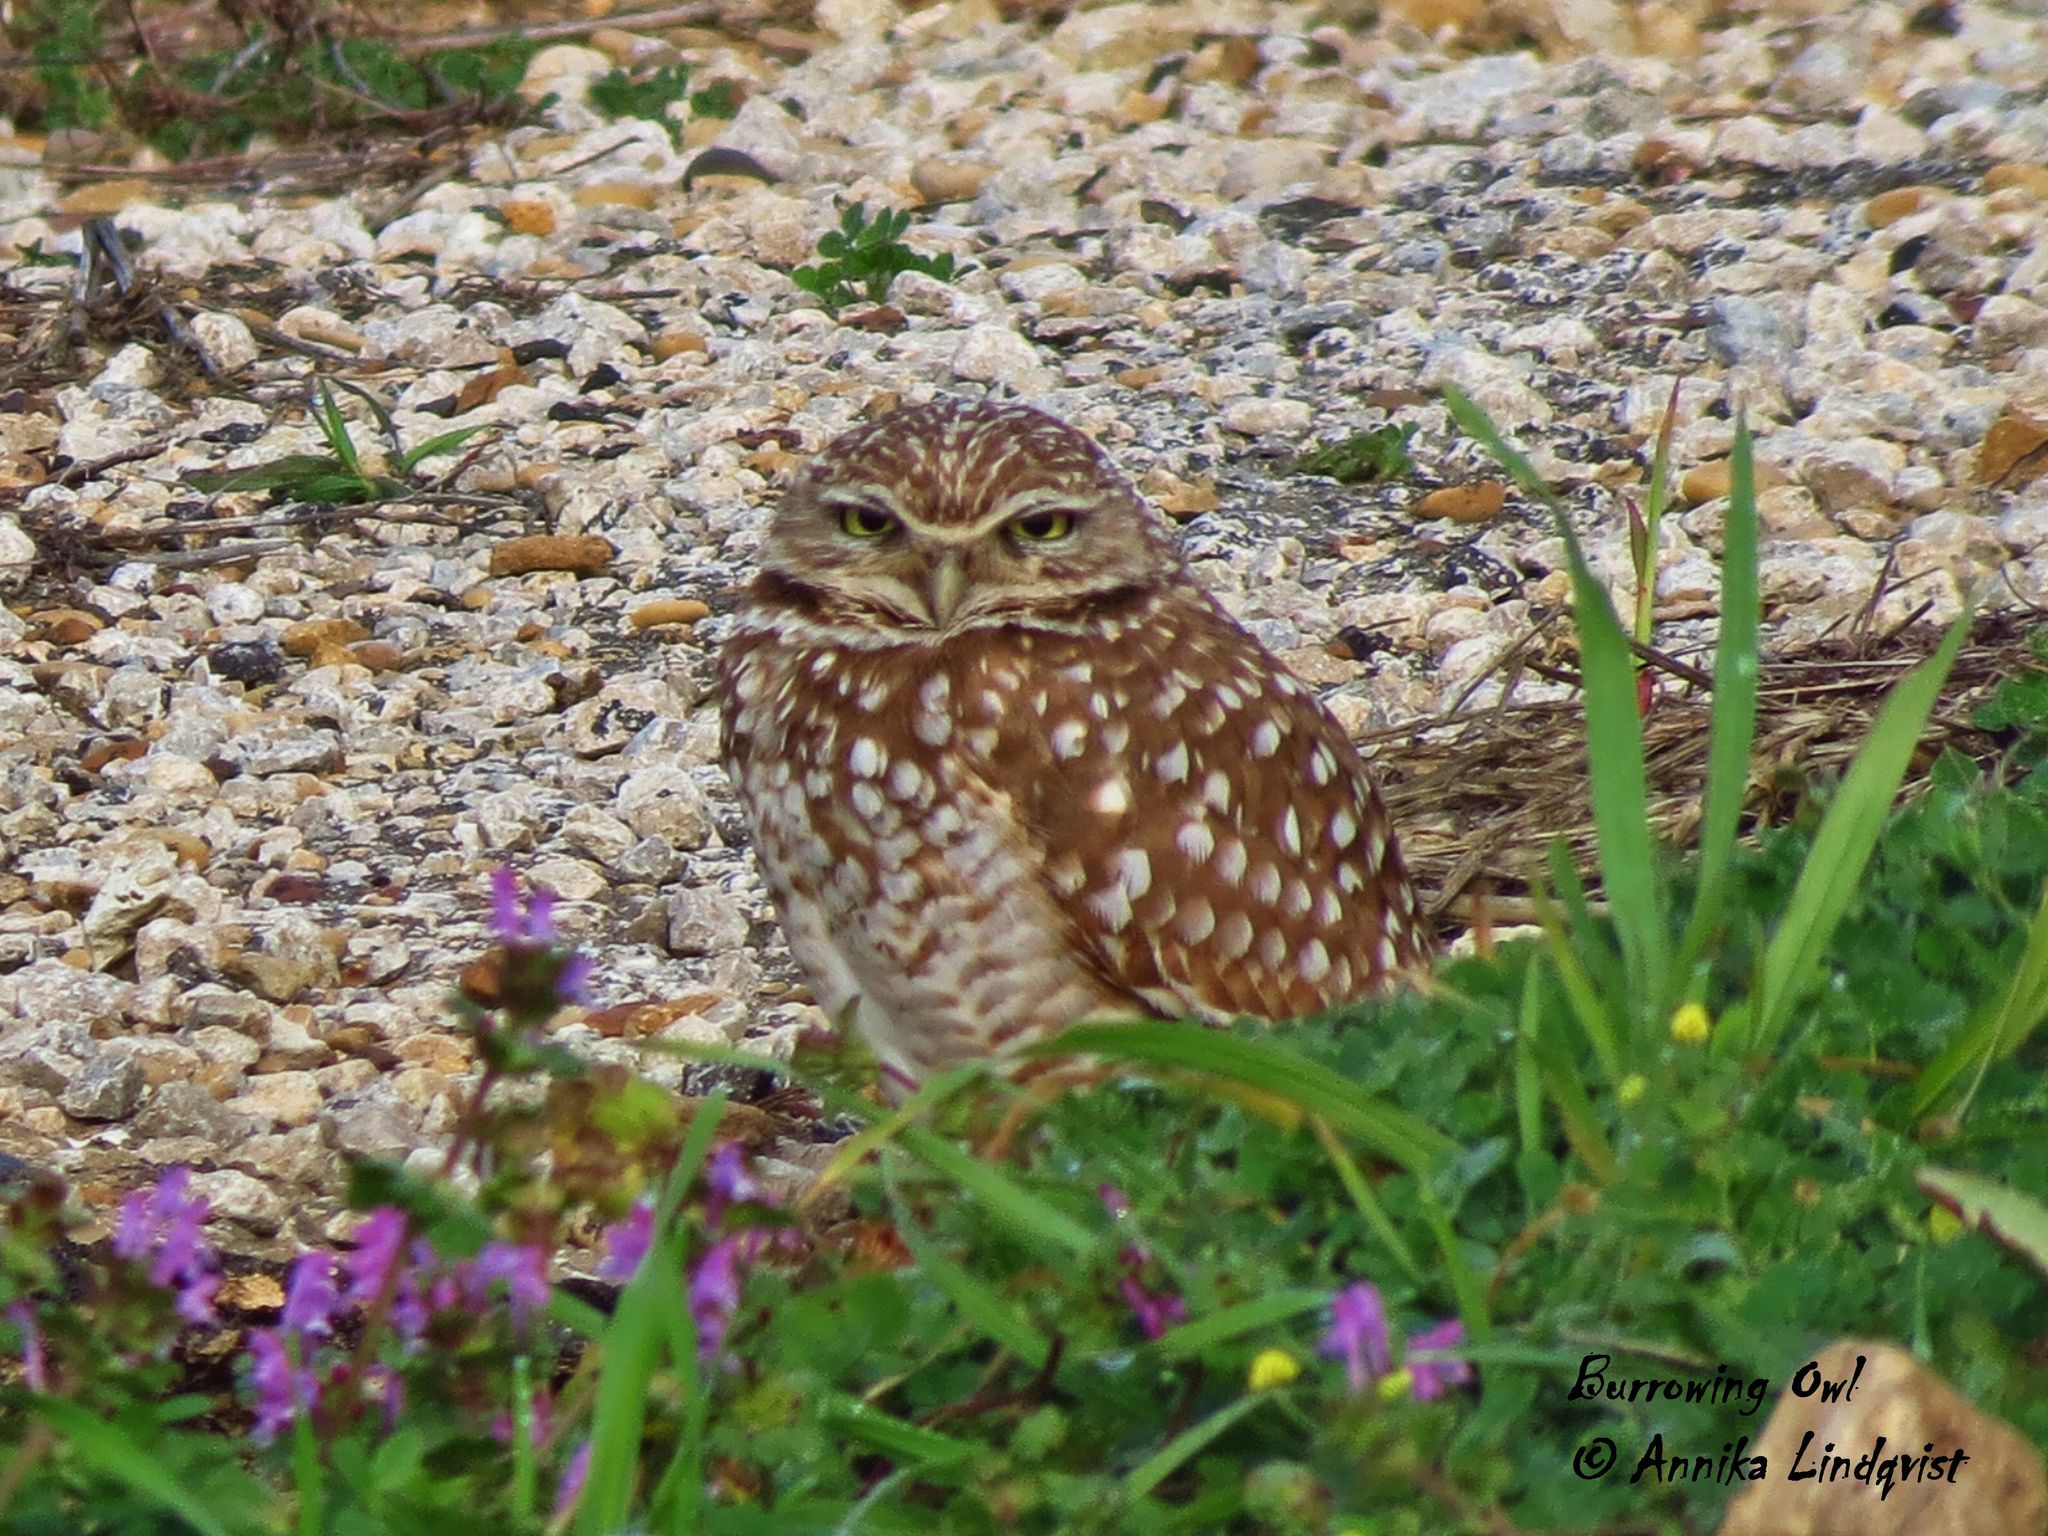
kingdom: Animalia
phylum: Chordata
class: Aves
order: Strigiformes
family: Strigidae
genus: Athene
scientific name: Athene cunicularia
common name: Burrowing owl
